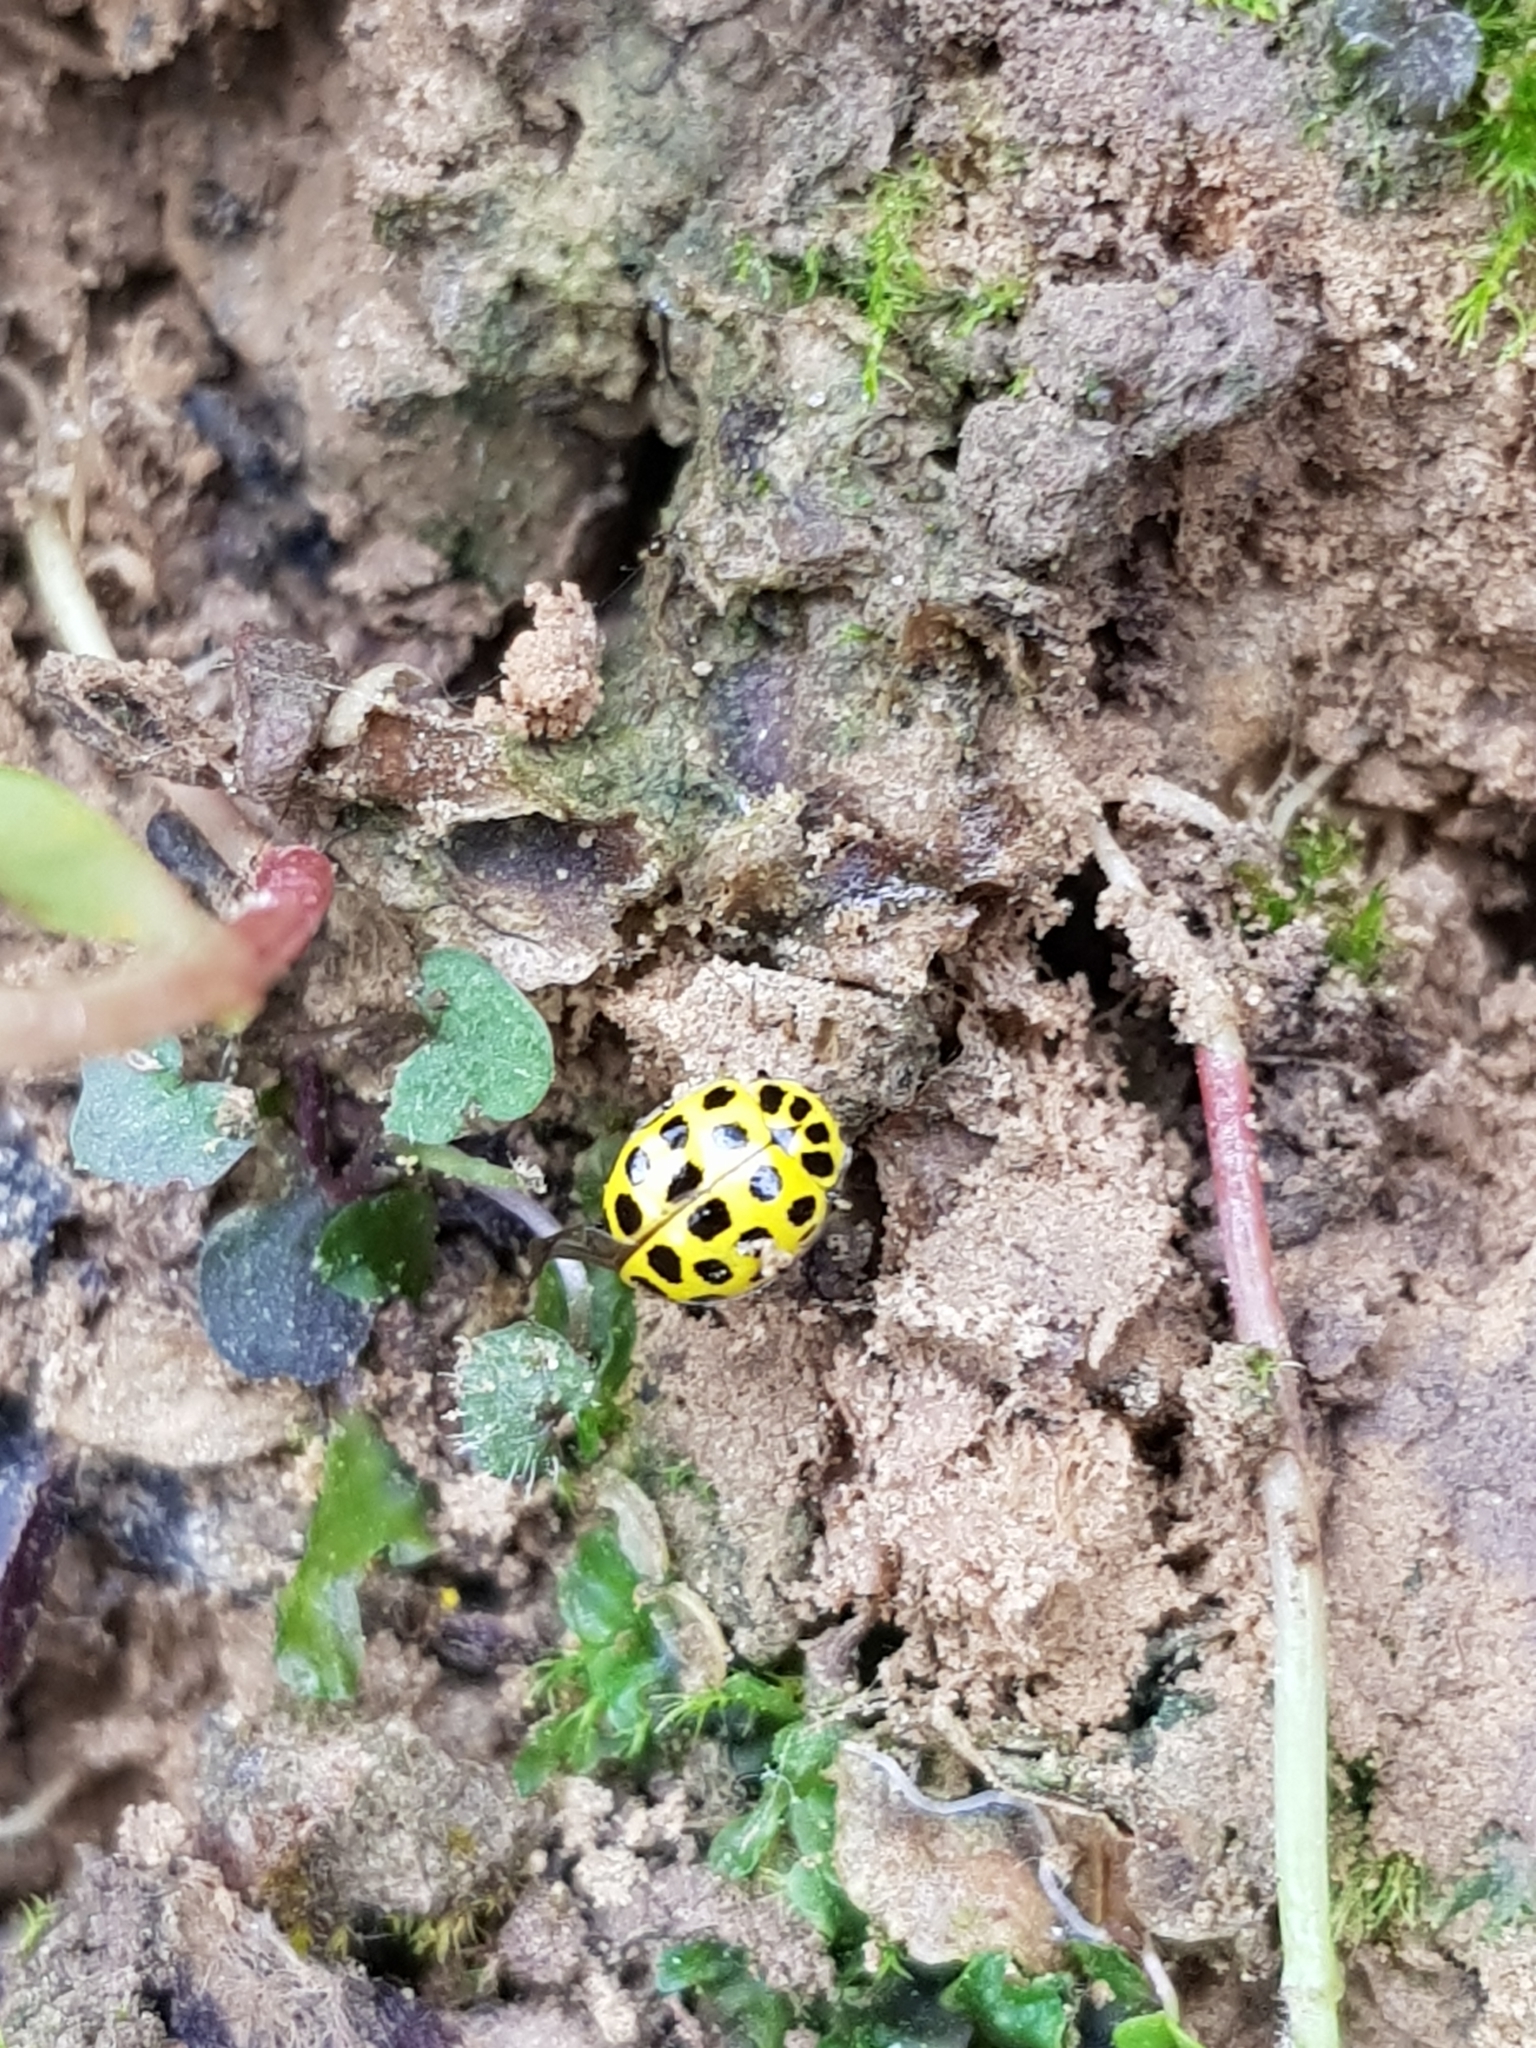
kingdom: Animalia
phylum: Arthropoda
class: Insecta
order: Coleoptera
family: Coccinellidae
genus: Psyllobora
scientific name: Psyllobora vigintiduopunctata
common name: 22-spot ladybird
